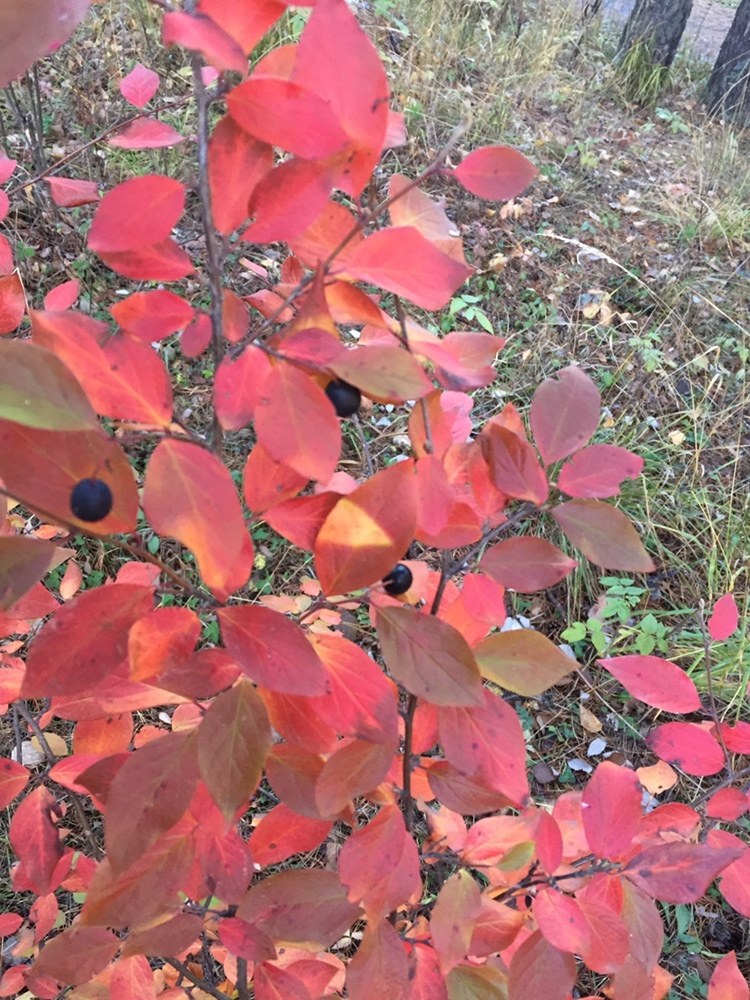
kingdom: Plantae
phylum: Tracheophyta
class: Magnoliopsida
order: Rosales
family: Rosaceae
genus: Cotoneaster
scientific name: Cotoneaster acutifolius
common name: Peking cotoneaster
